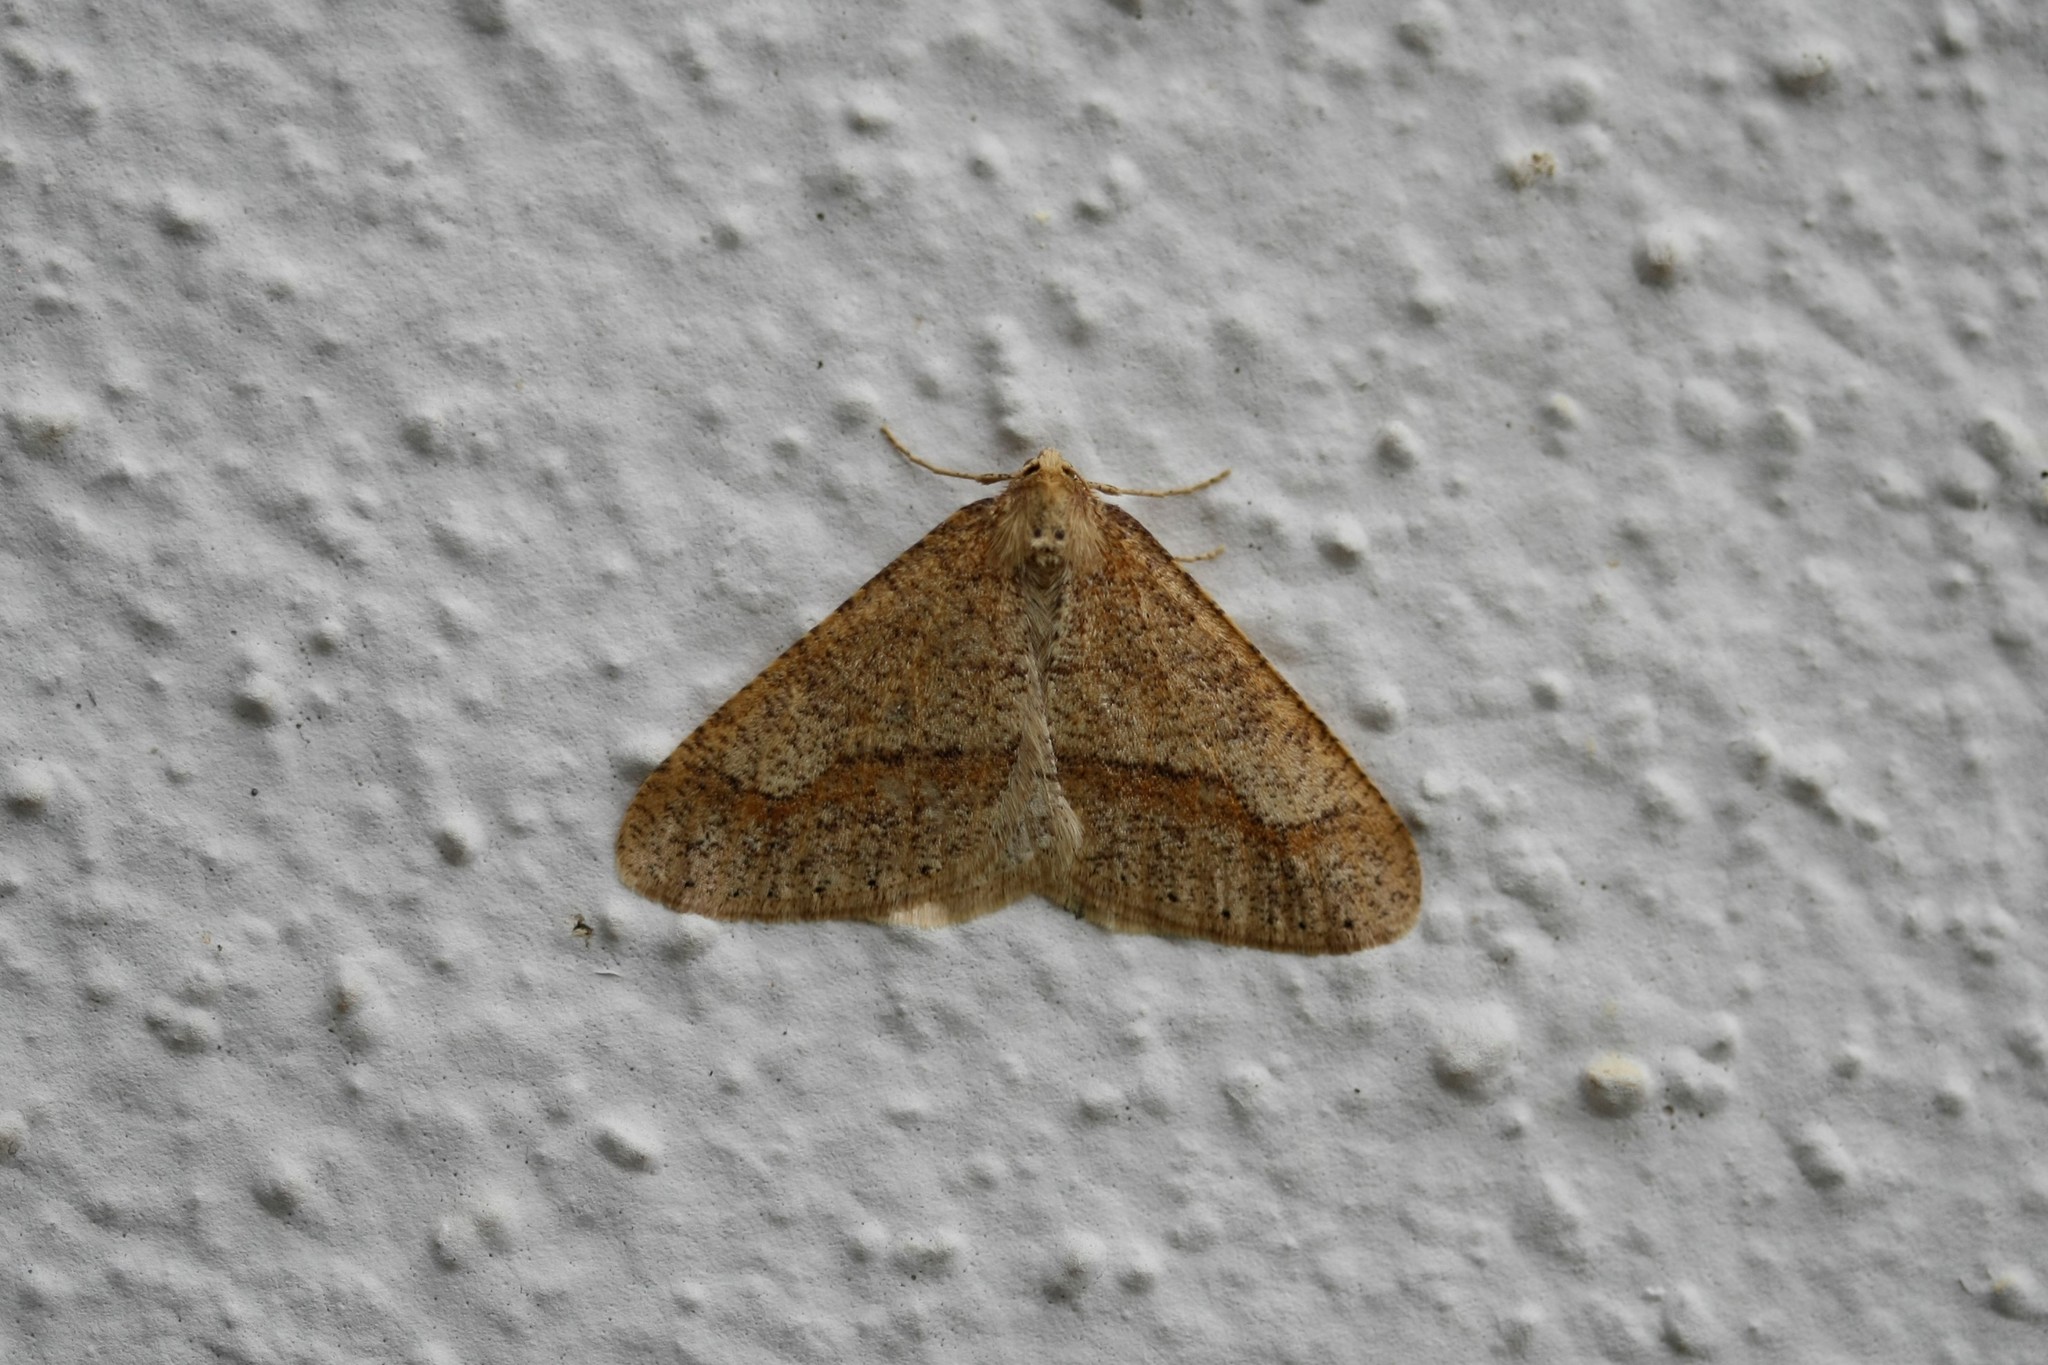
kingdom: Animalia
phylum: Arthropoda
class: Insecta
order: Lepidoptera
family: Geometridae
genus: Agriopis
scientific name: Agriopis marginaria
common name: Dotted border
